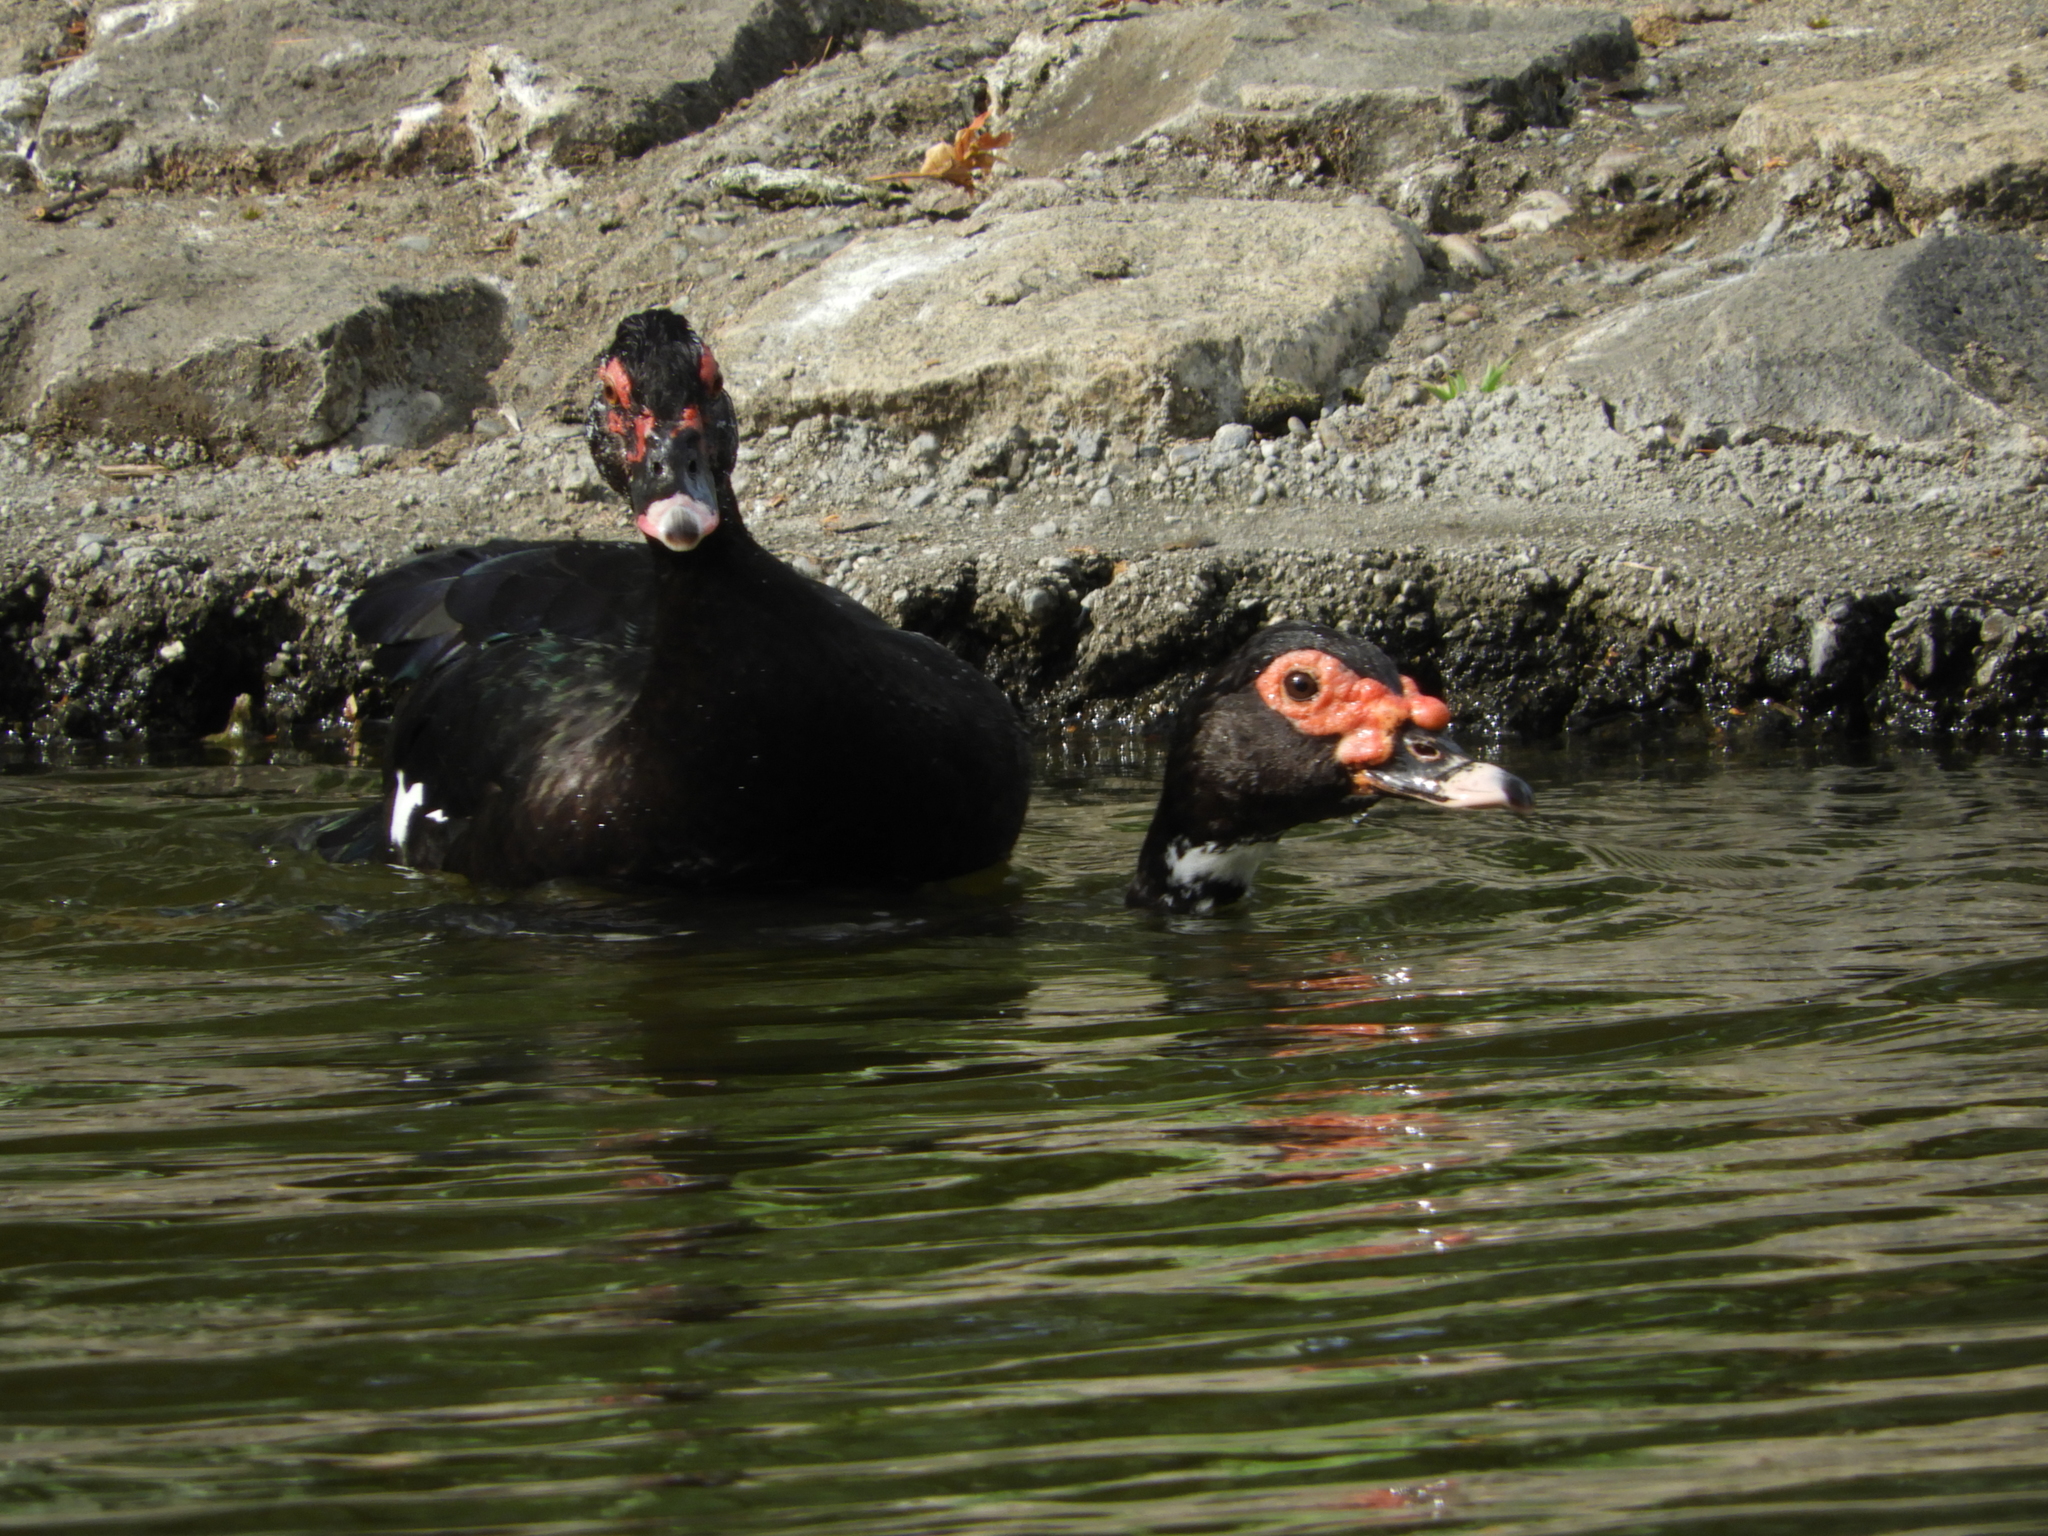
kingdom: Animalia
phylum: Chordata
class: Aves
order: Anseriformes
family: Anatidae
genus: Cairina
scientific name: Cairina moschata
